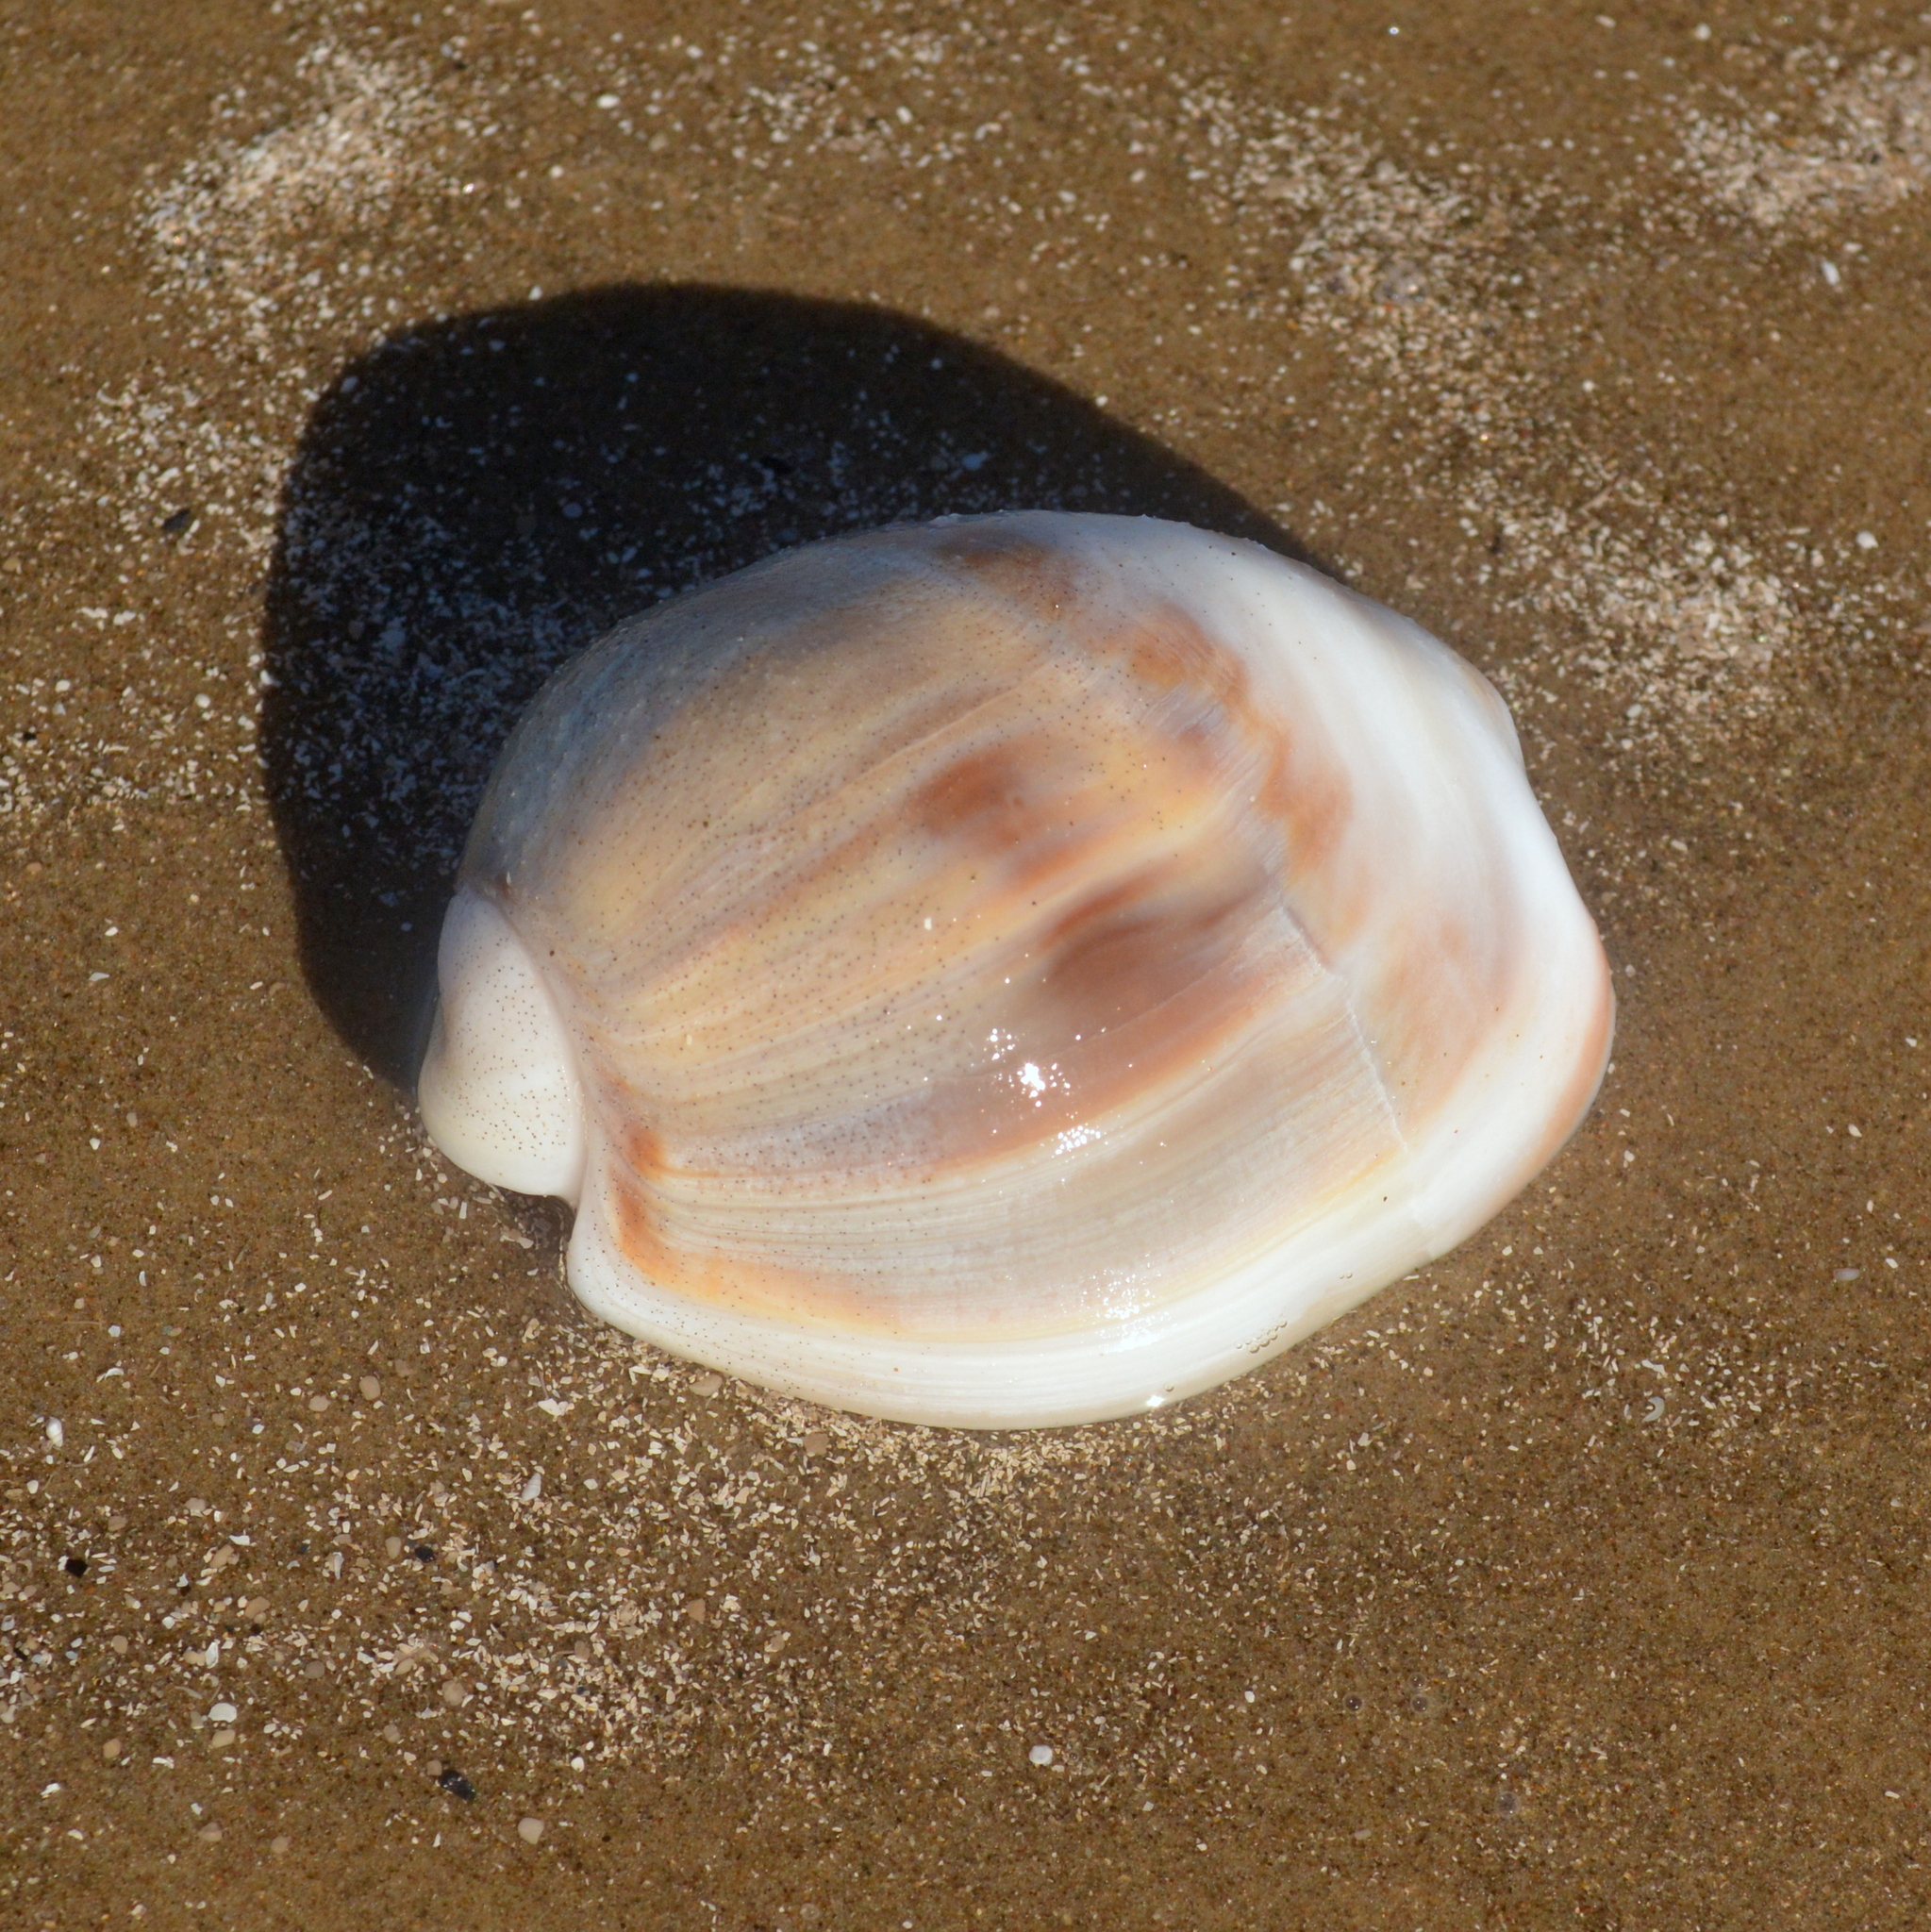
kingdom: Animalia
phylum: Mollusca
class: Gastropoda
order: Neogastropoda
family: Olividae
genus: Olivancillaria
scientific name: Olivancillaria auricularia
